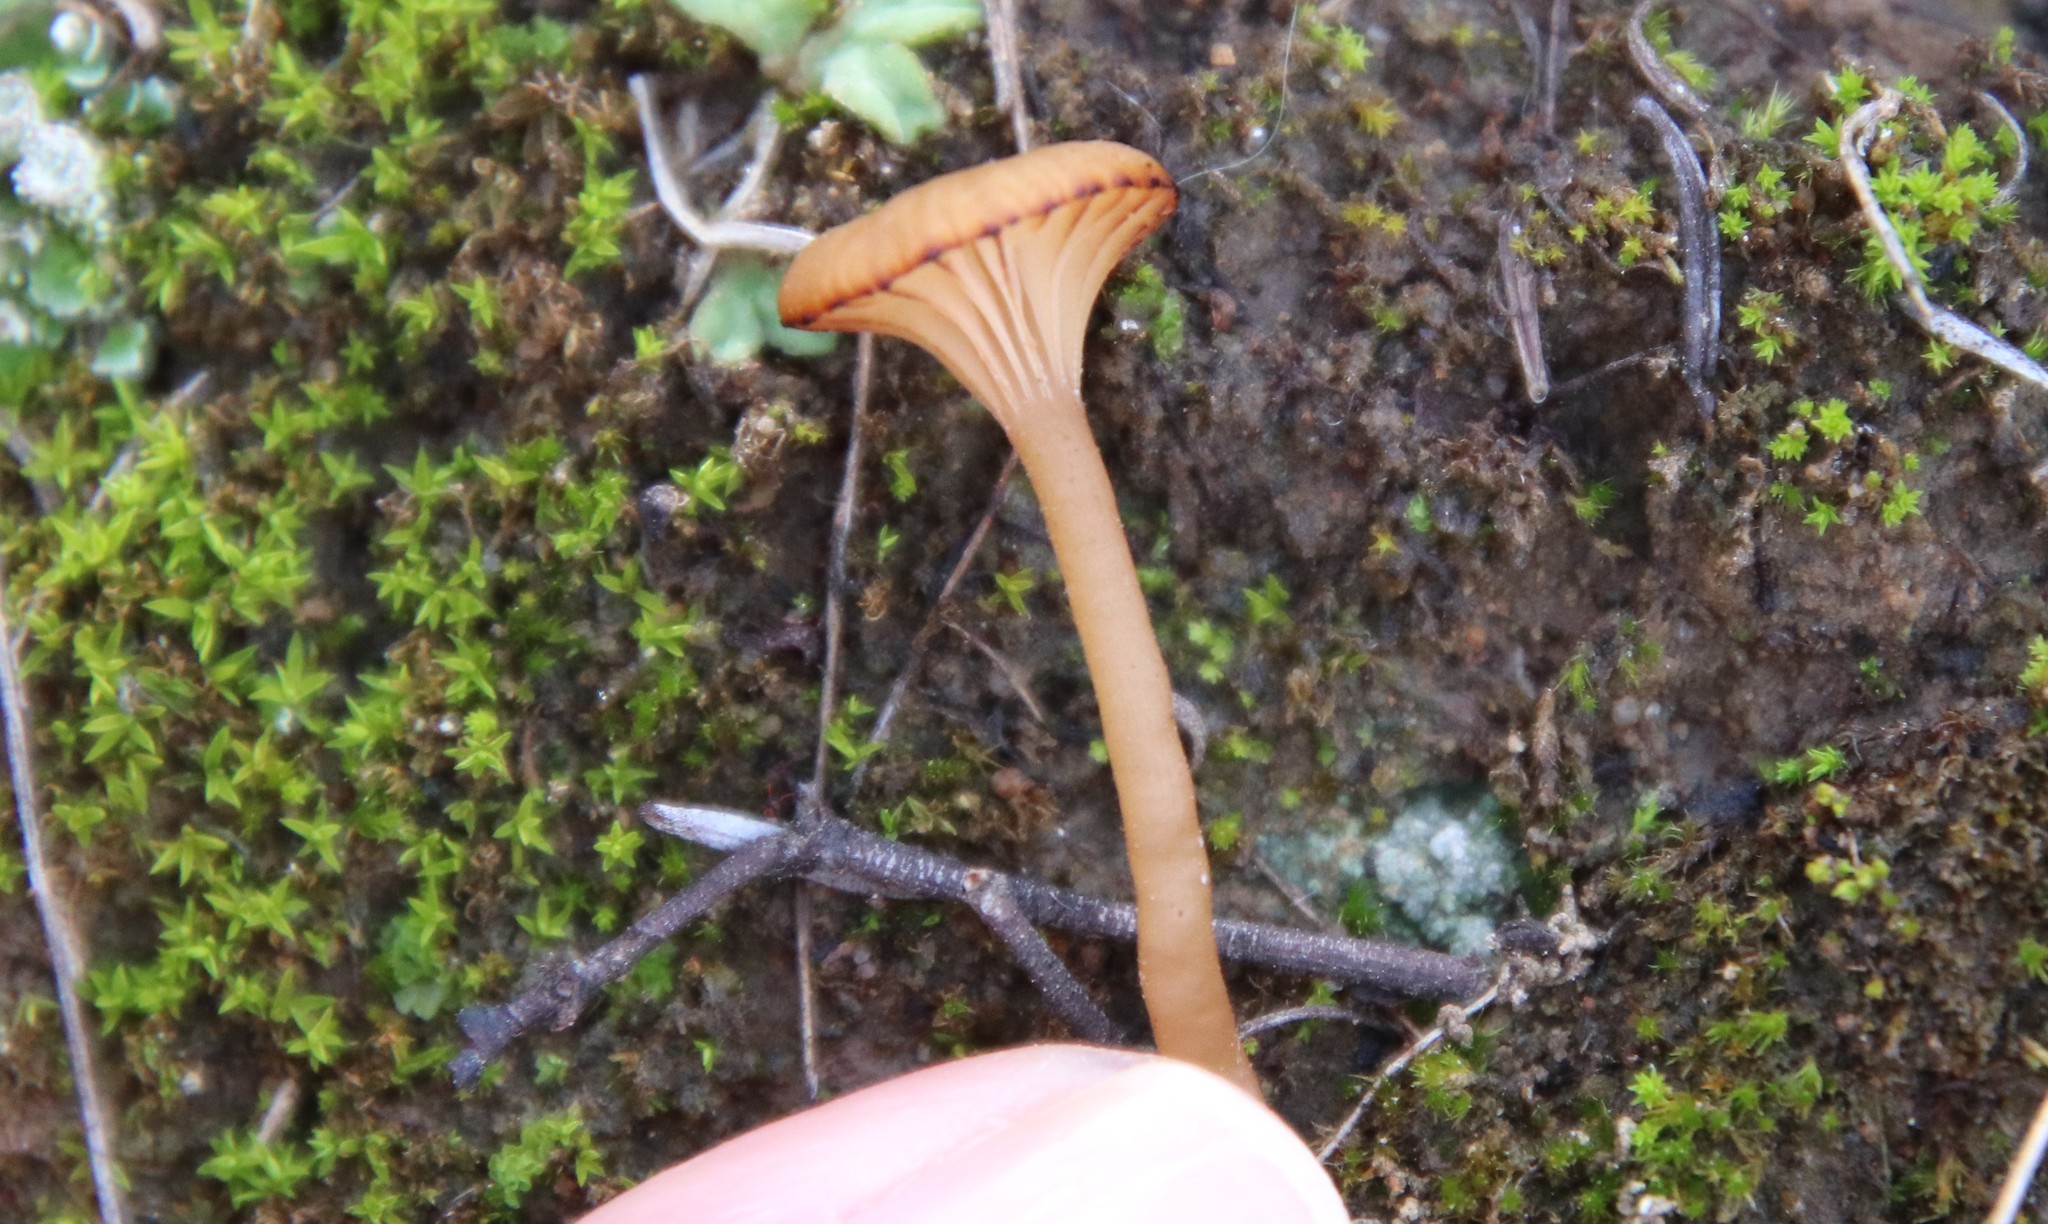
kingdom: Fungi
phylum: Basidiomycota
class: Agaricomycetes
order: Hymenochaetales
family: Rickenellaceae
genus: Contumyces
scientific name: Contumyces rosellus
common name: Rosy navel
